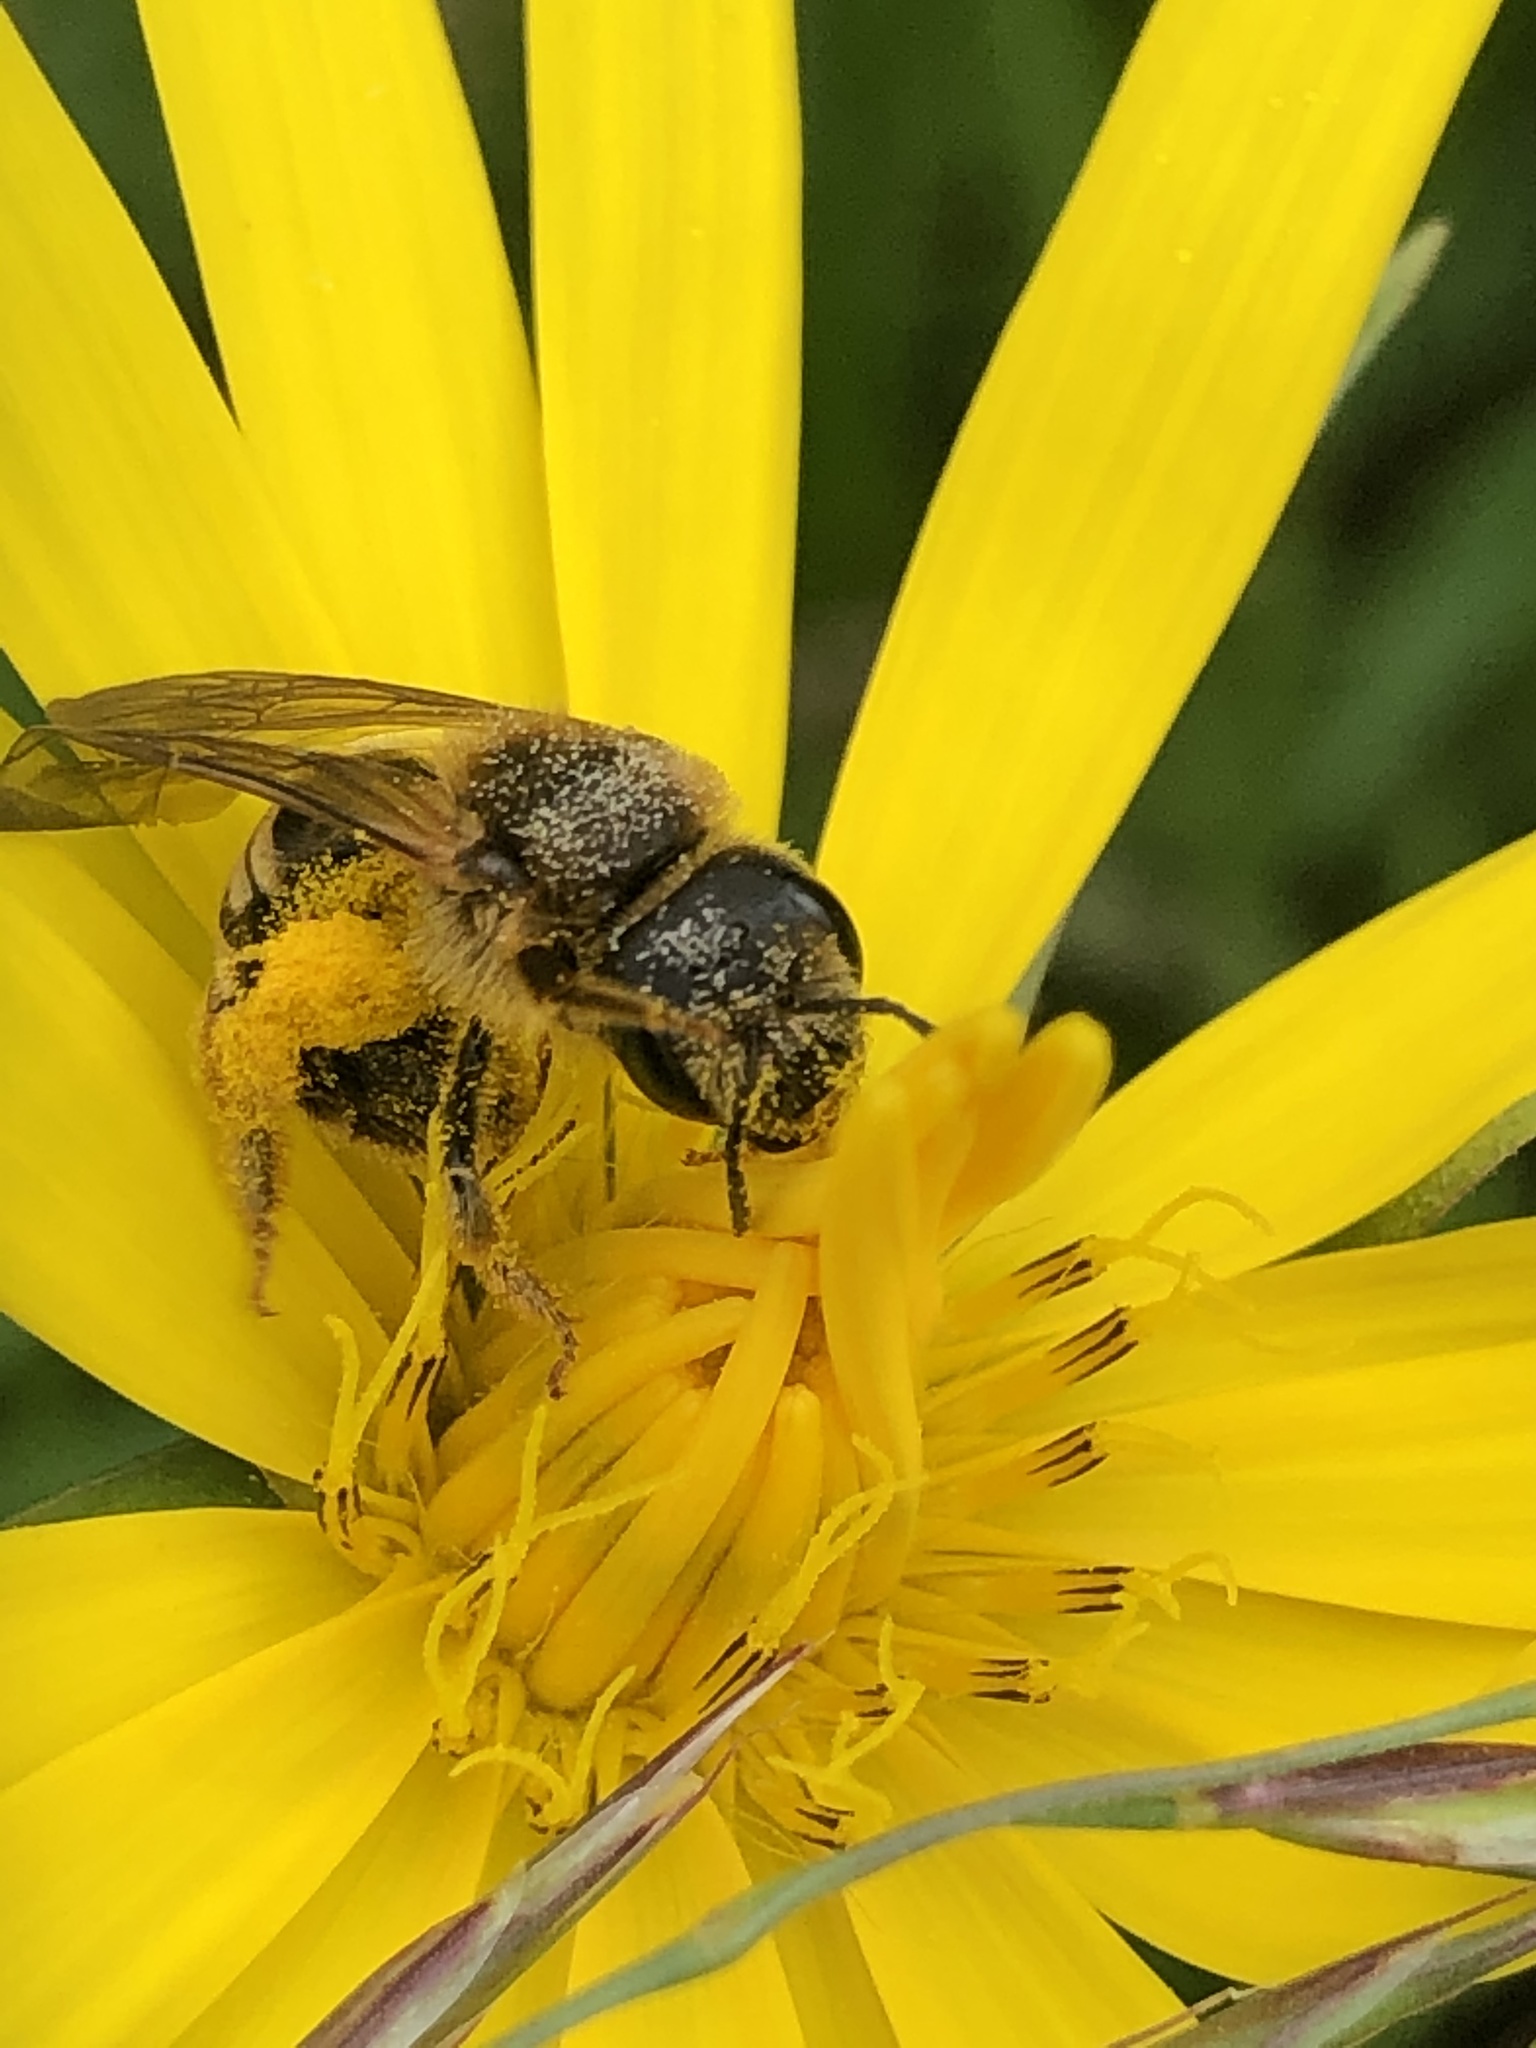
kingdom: Animalia
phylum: Arthropoda
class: Insecta
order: Hymenoptera
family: Halictidae
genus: Halictus
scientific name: Halictus scabiosae
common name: Great banded furrow bee
